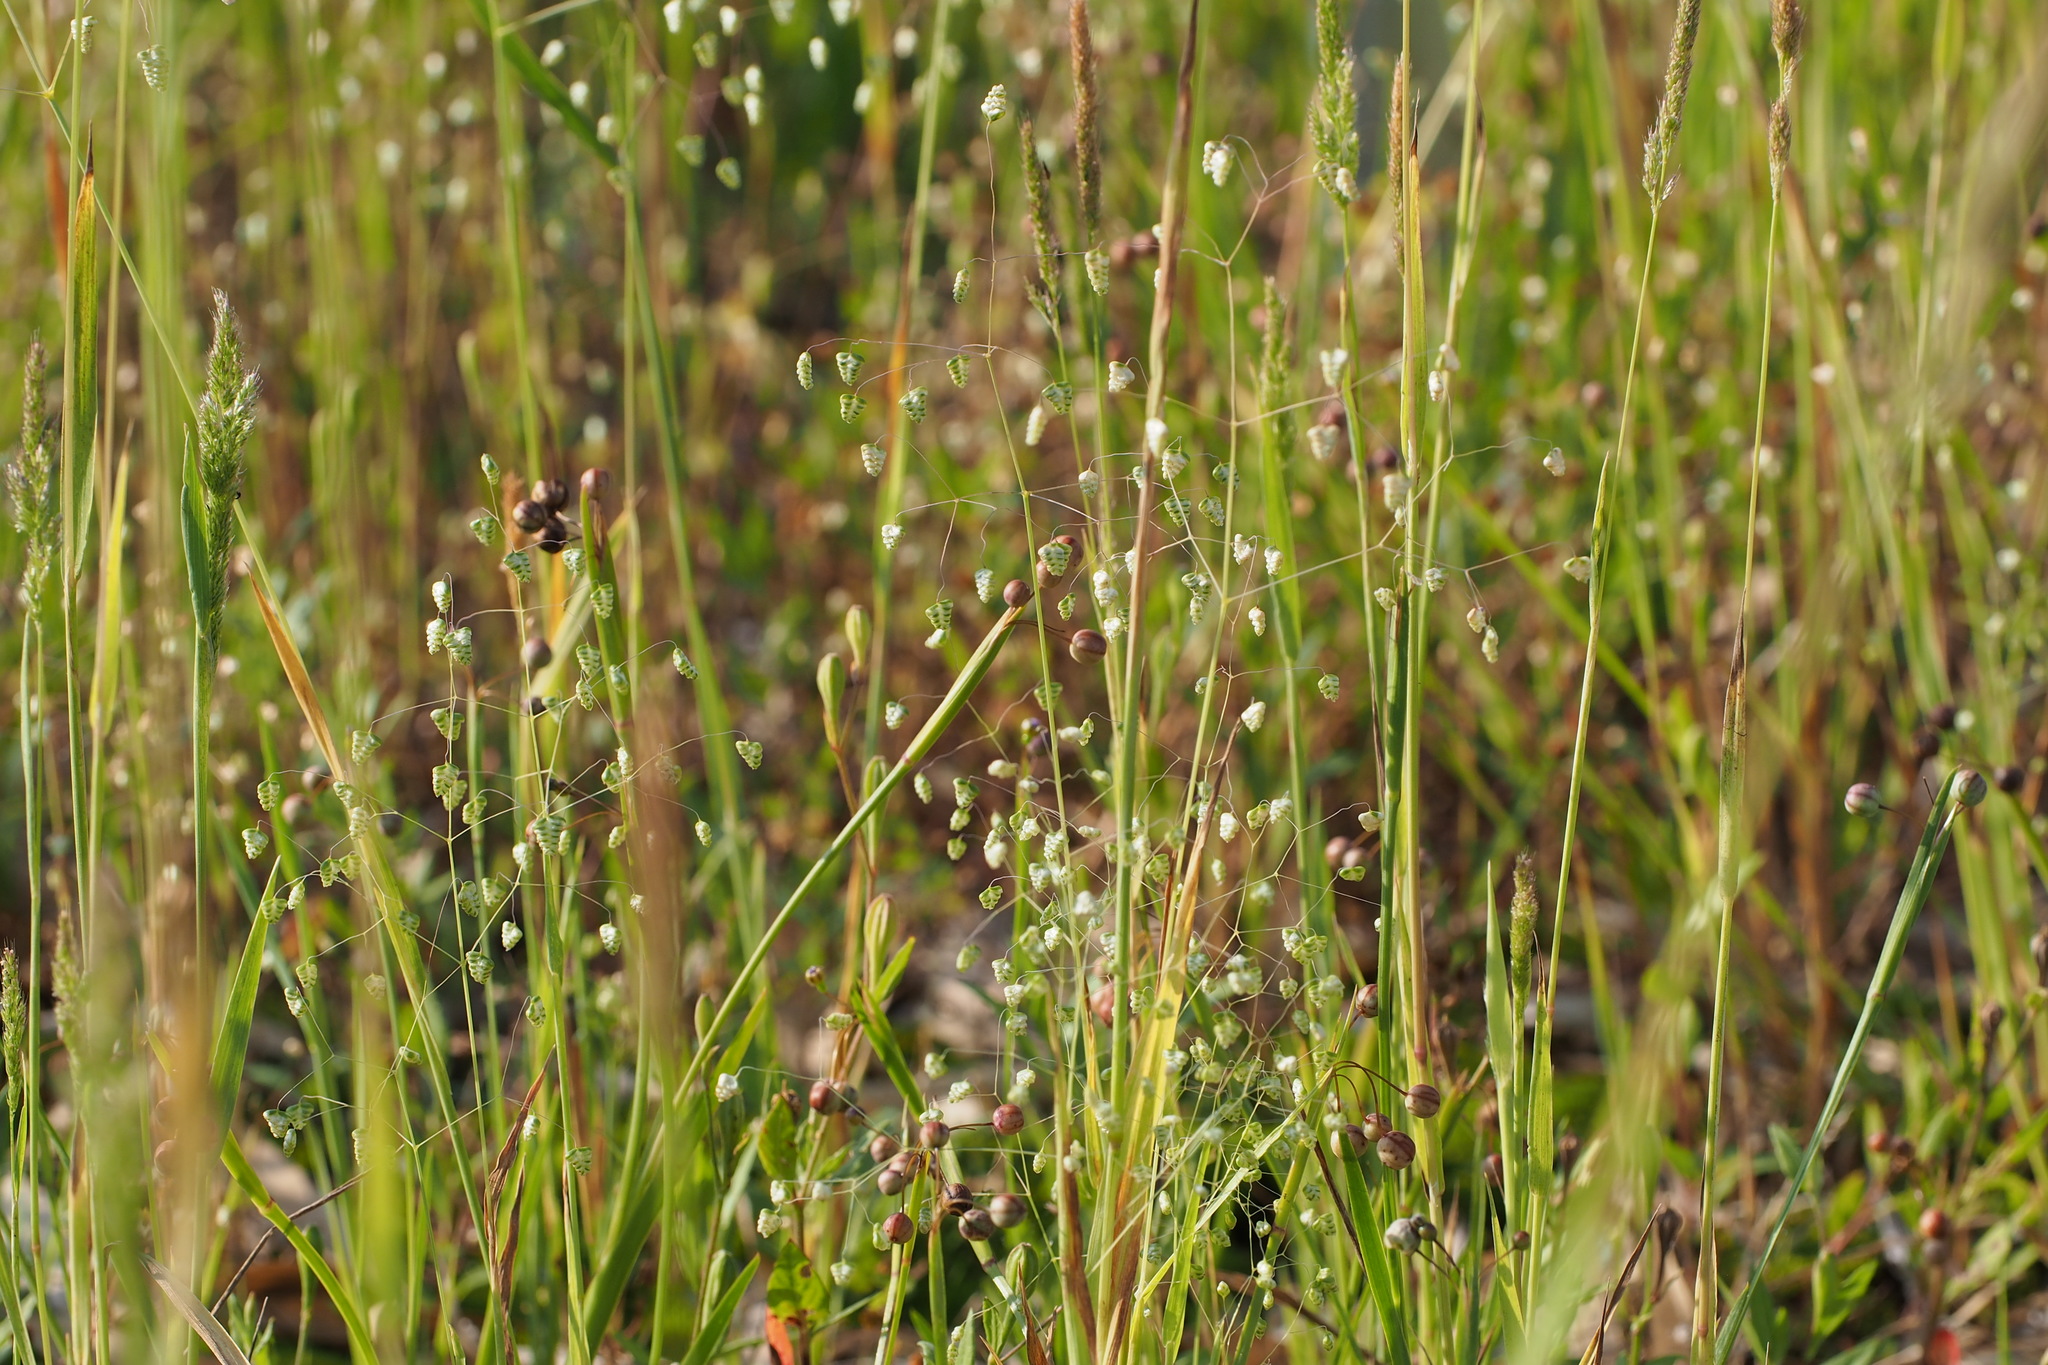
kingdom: Plantae
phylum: Tracheophyta
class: Liliopsida
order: Poales
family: Poaceae
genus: Briza
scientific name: Briza minor
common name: Lesser quaking-grass
